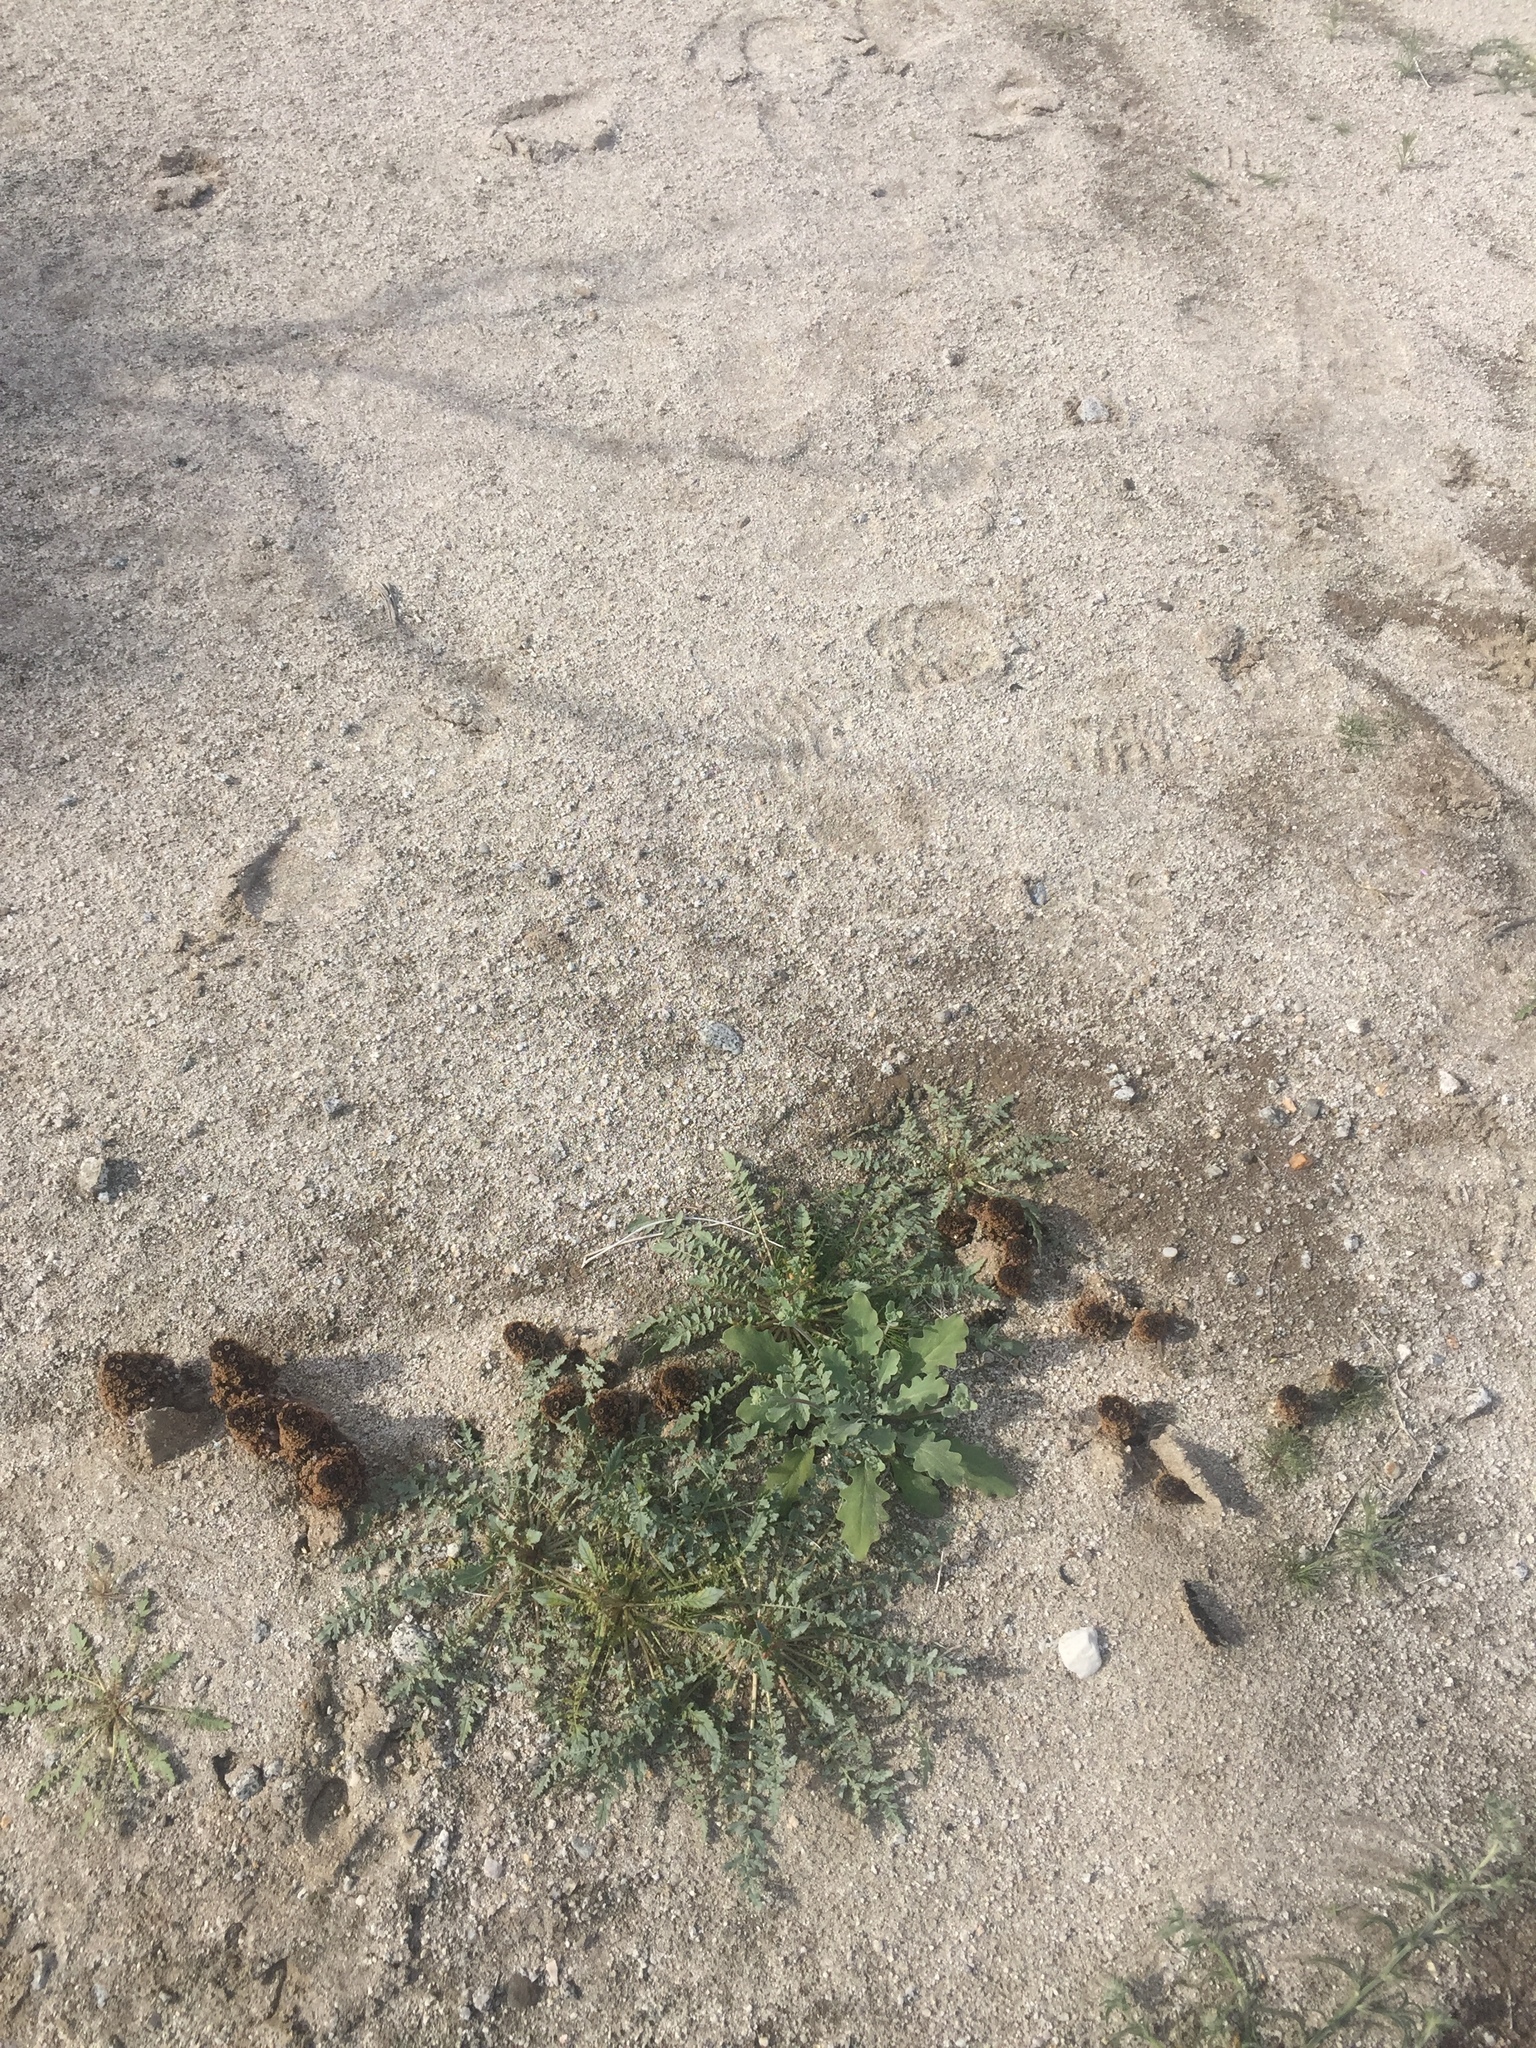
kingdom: Plantae
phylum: Tracheophyta
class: Magnoliopsida
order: Boraginales
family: Lennoaceae
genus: Pholisma
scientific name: Pholisma arenarium
